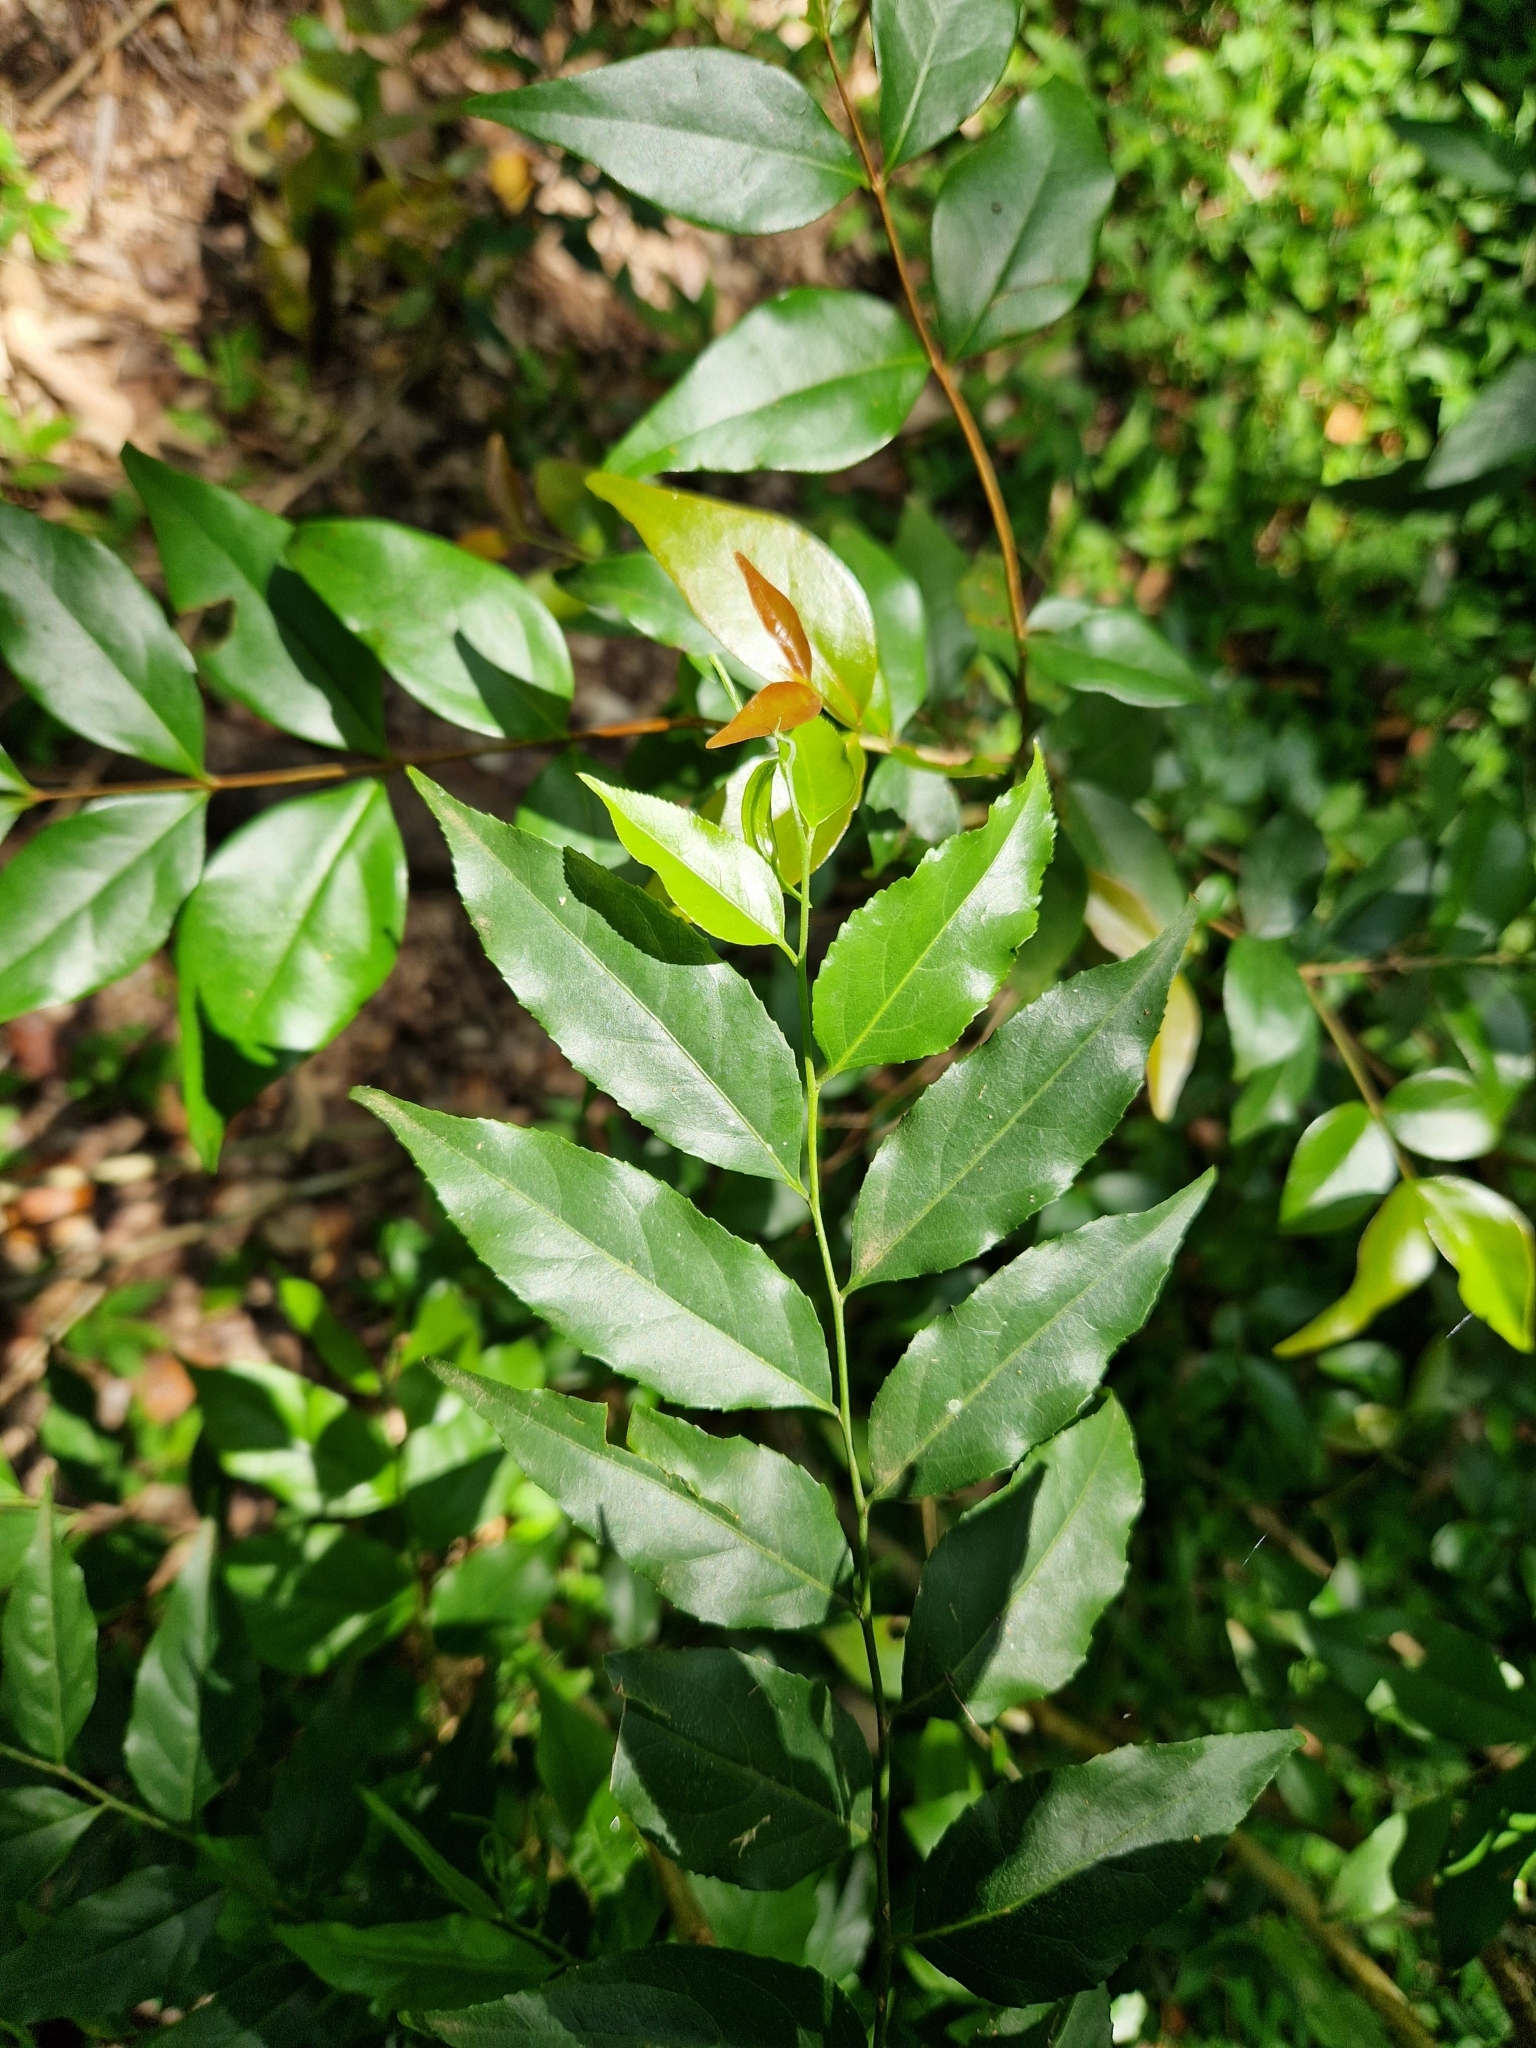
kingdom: Plantae
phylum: Tracheophyta
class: Magnoliopsida
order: Malpighiales
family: Salicaceae
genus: Casearia
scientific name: Casearia sylvestris
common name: Wild sage
